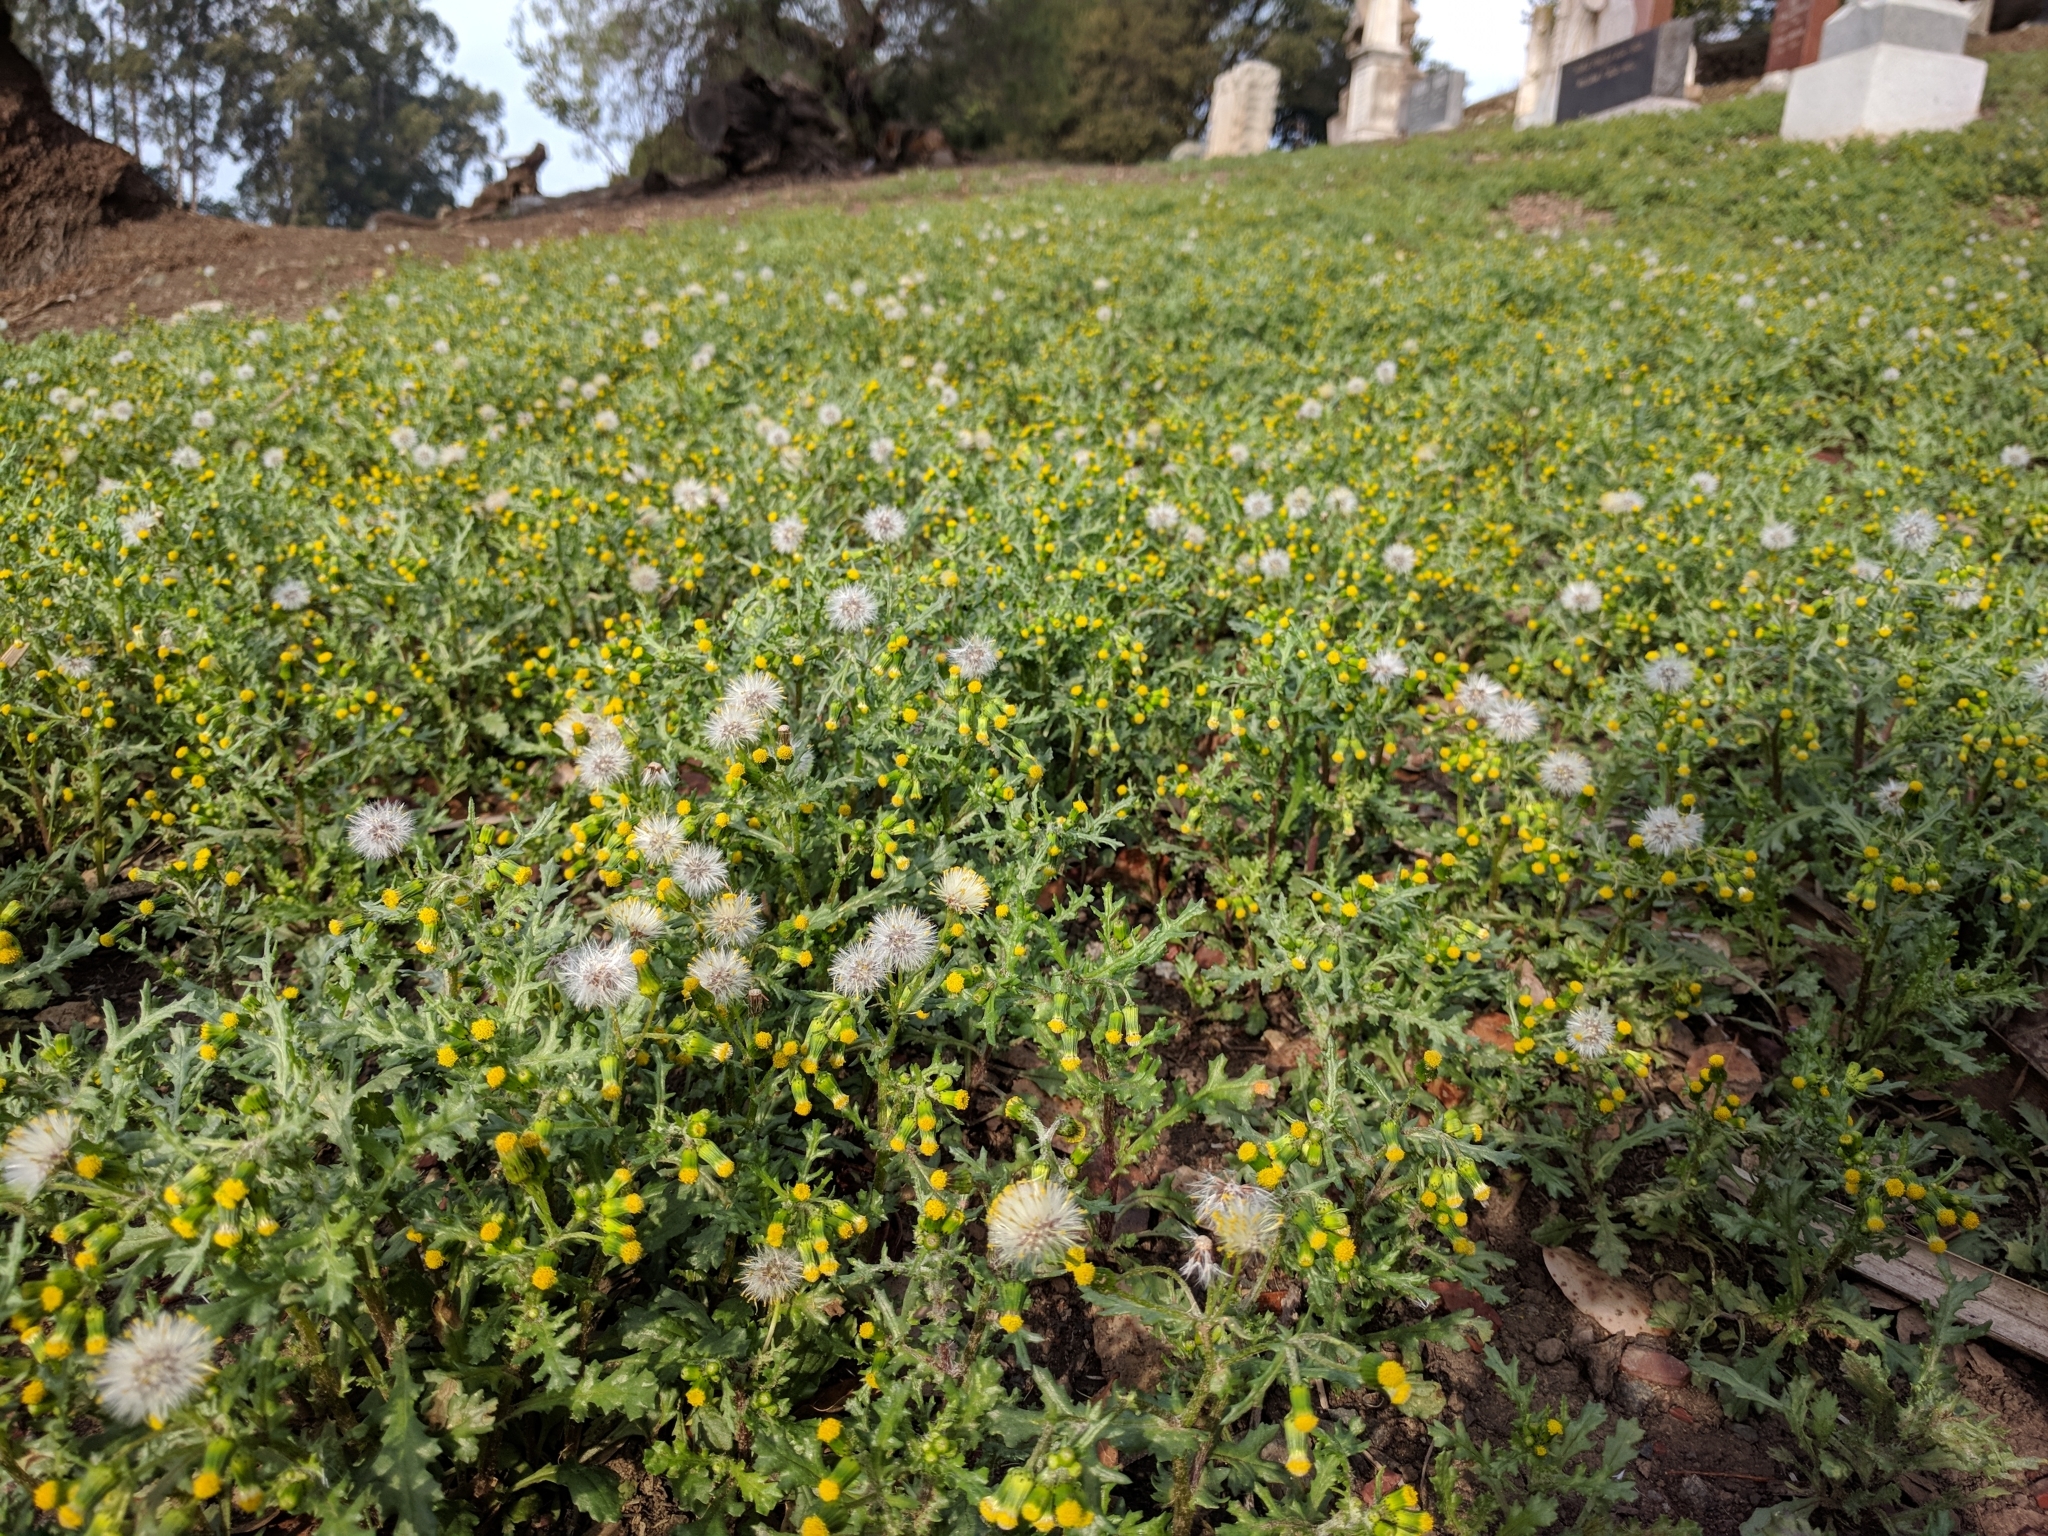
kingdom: Plantae
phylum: Tracheophyta
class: Magnoliopsida
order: Asterales
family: Asteraceae
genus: Senecio
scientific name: Senecio vulgaris
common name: Old-man-in-the-spring
